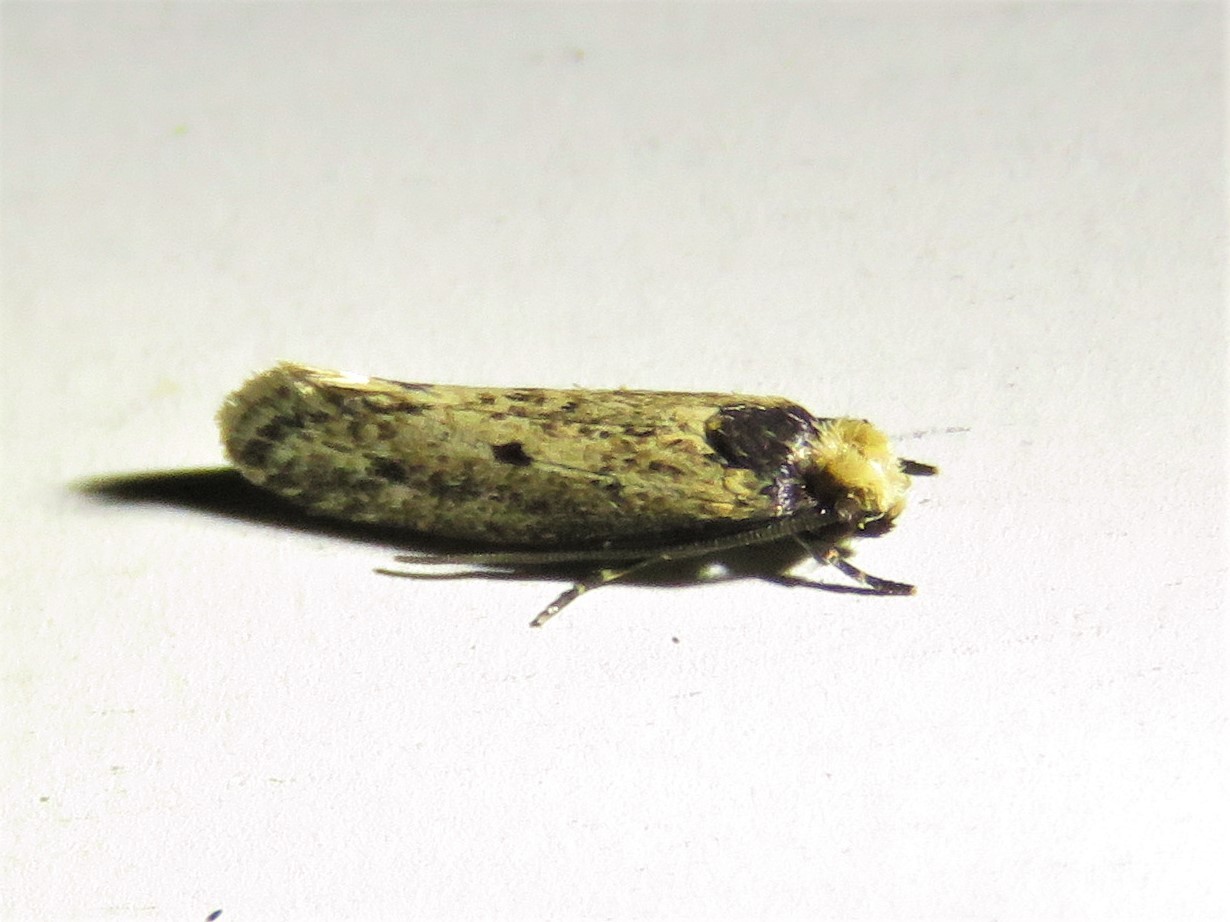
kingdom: Animalia
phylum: Arthropoda
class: Insecta
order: Lepidoptera
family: Tineidae
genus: Tinea
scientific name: Tinea apicimaculella
